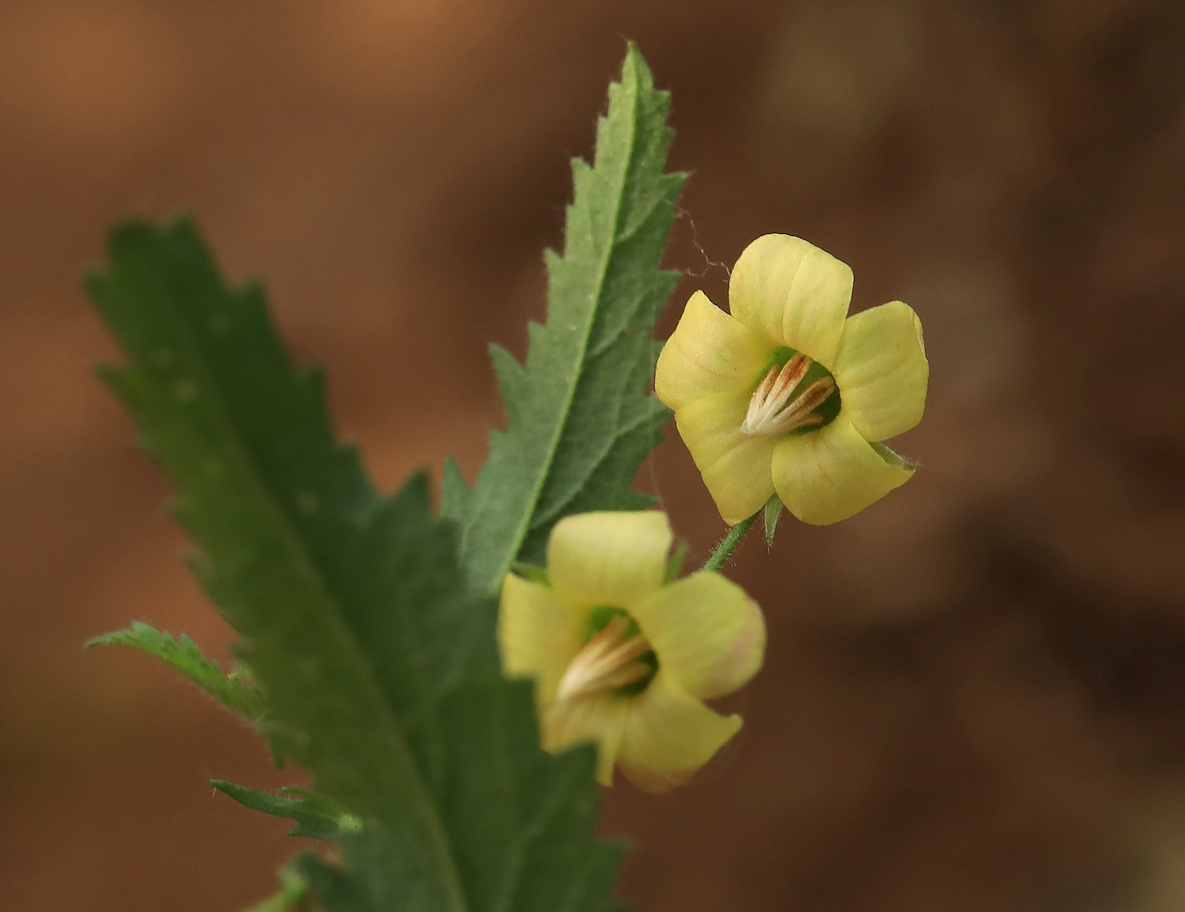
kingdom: Plantae
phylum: Tracheophyta
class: Magnoliopsida
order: Malvales
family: Malvaceae
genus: Hermannia
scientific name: Hermannia quartiniana
